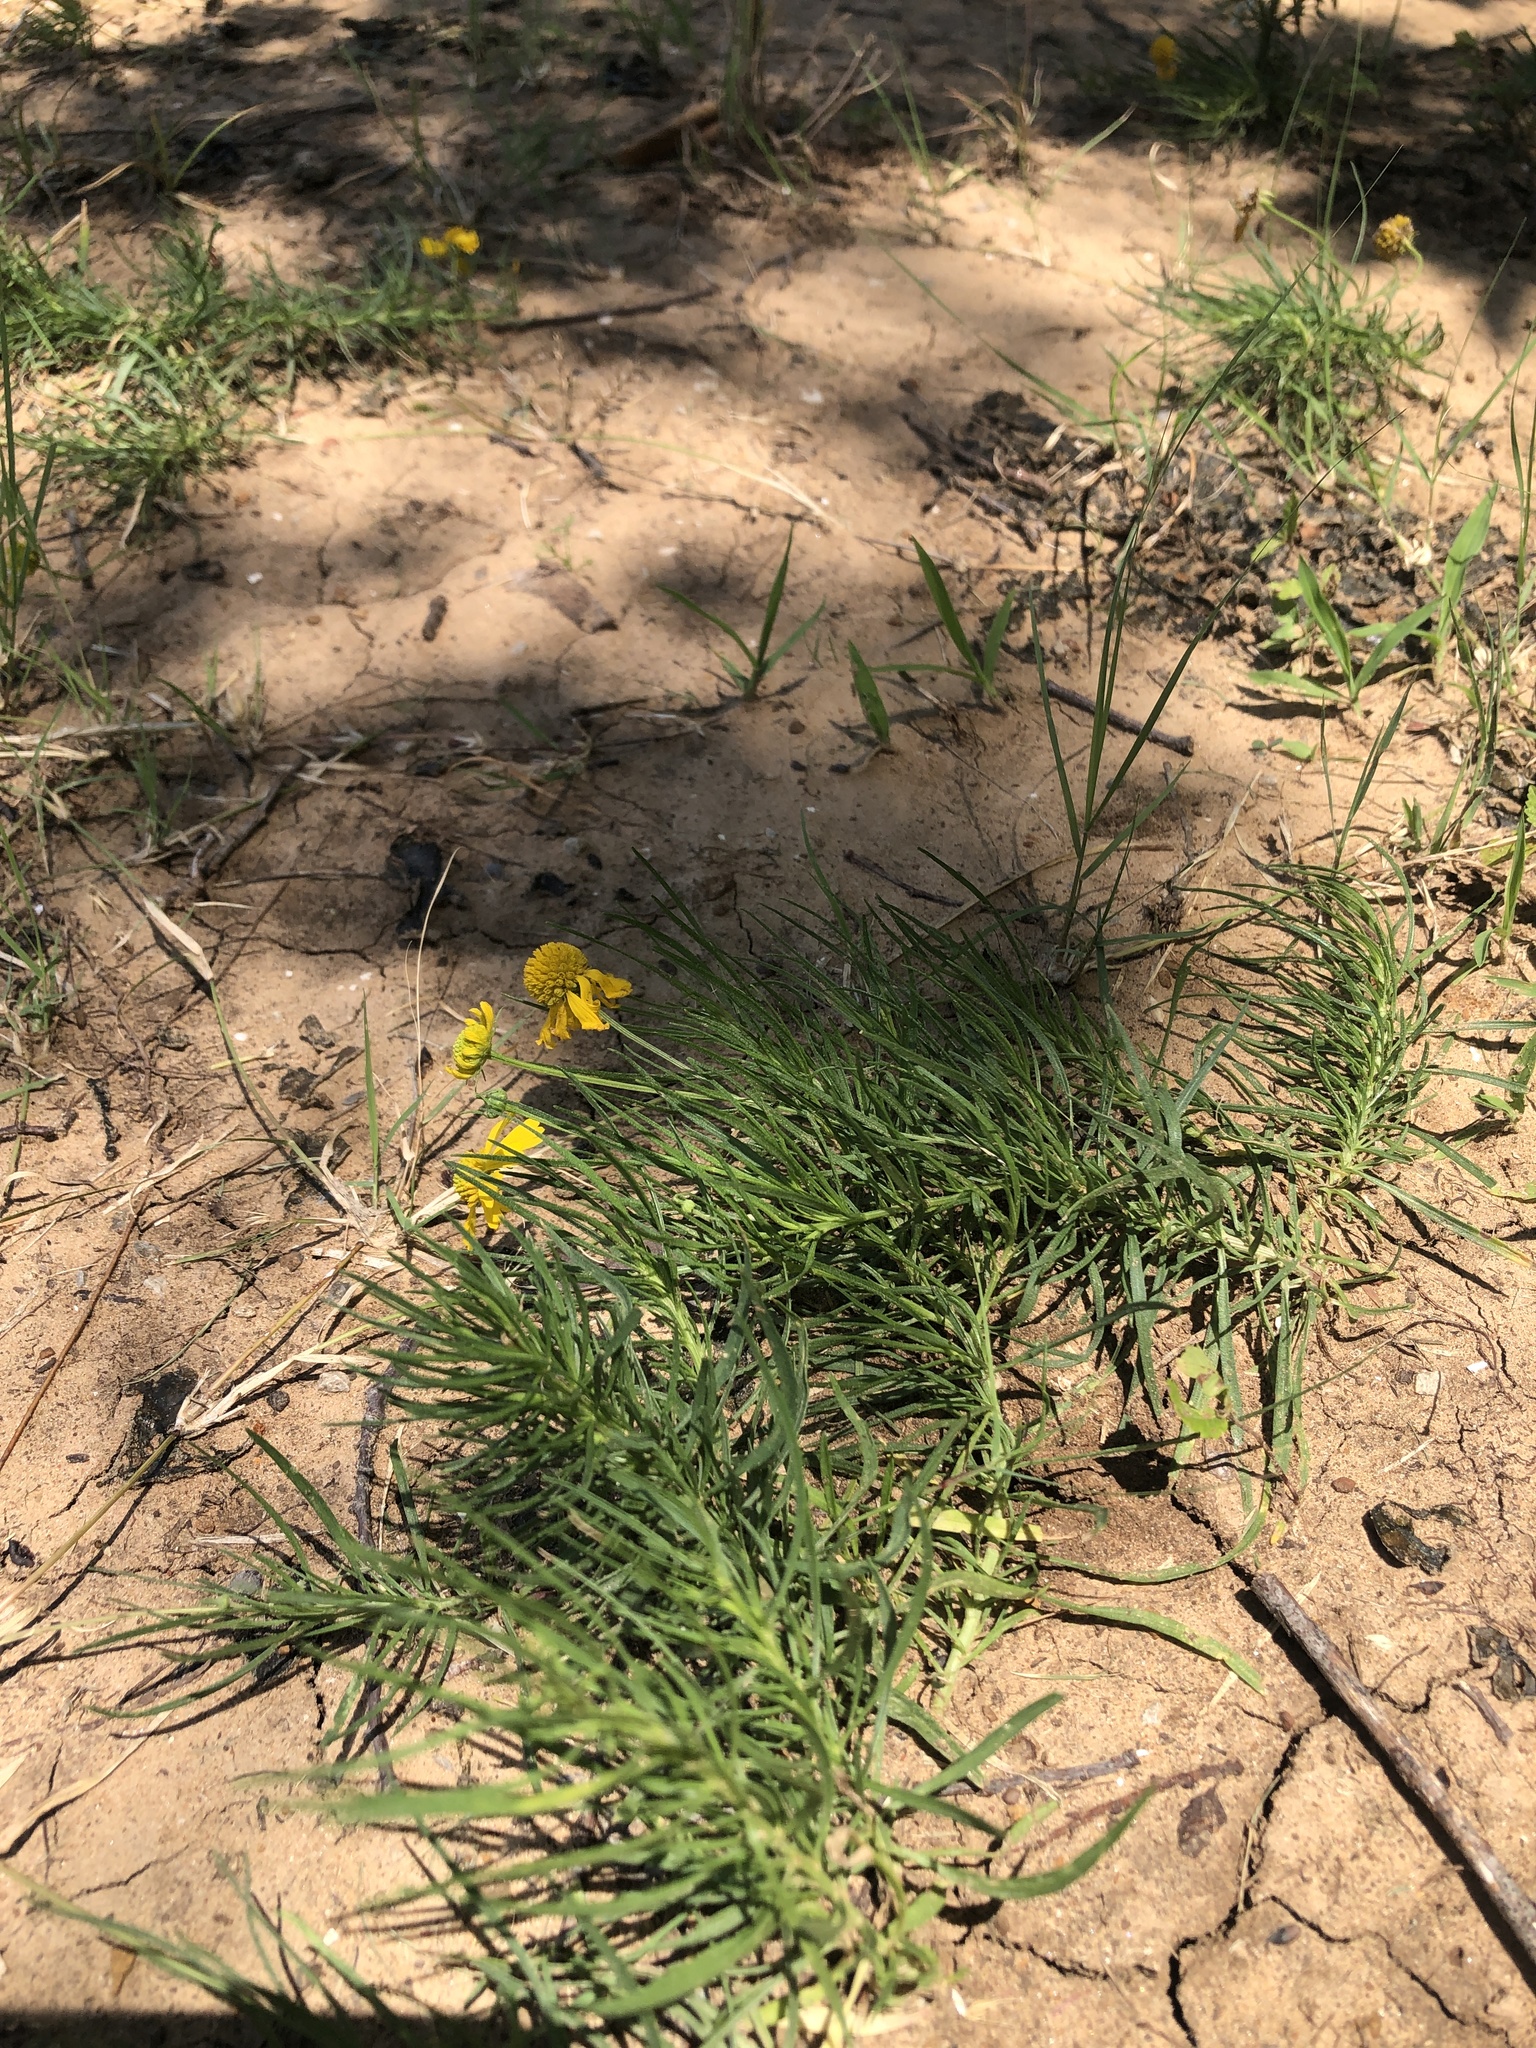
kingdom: Plantae
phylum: Tracheophyta
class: Magnoliopsida
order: Asterales
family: Asteraceae
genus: Helenium
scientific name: Helenium amarum
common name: Bitter sneezeweed
